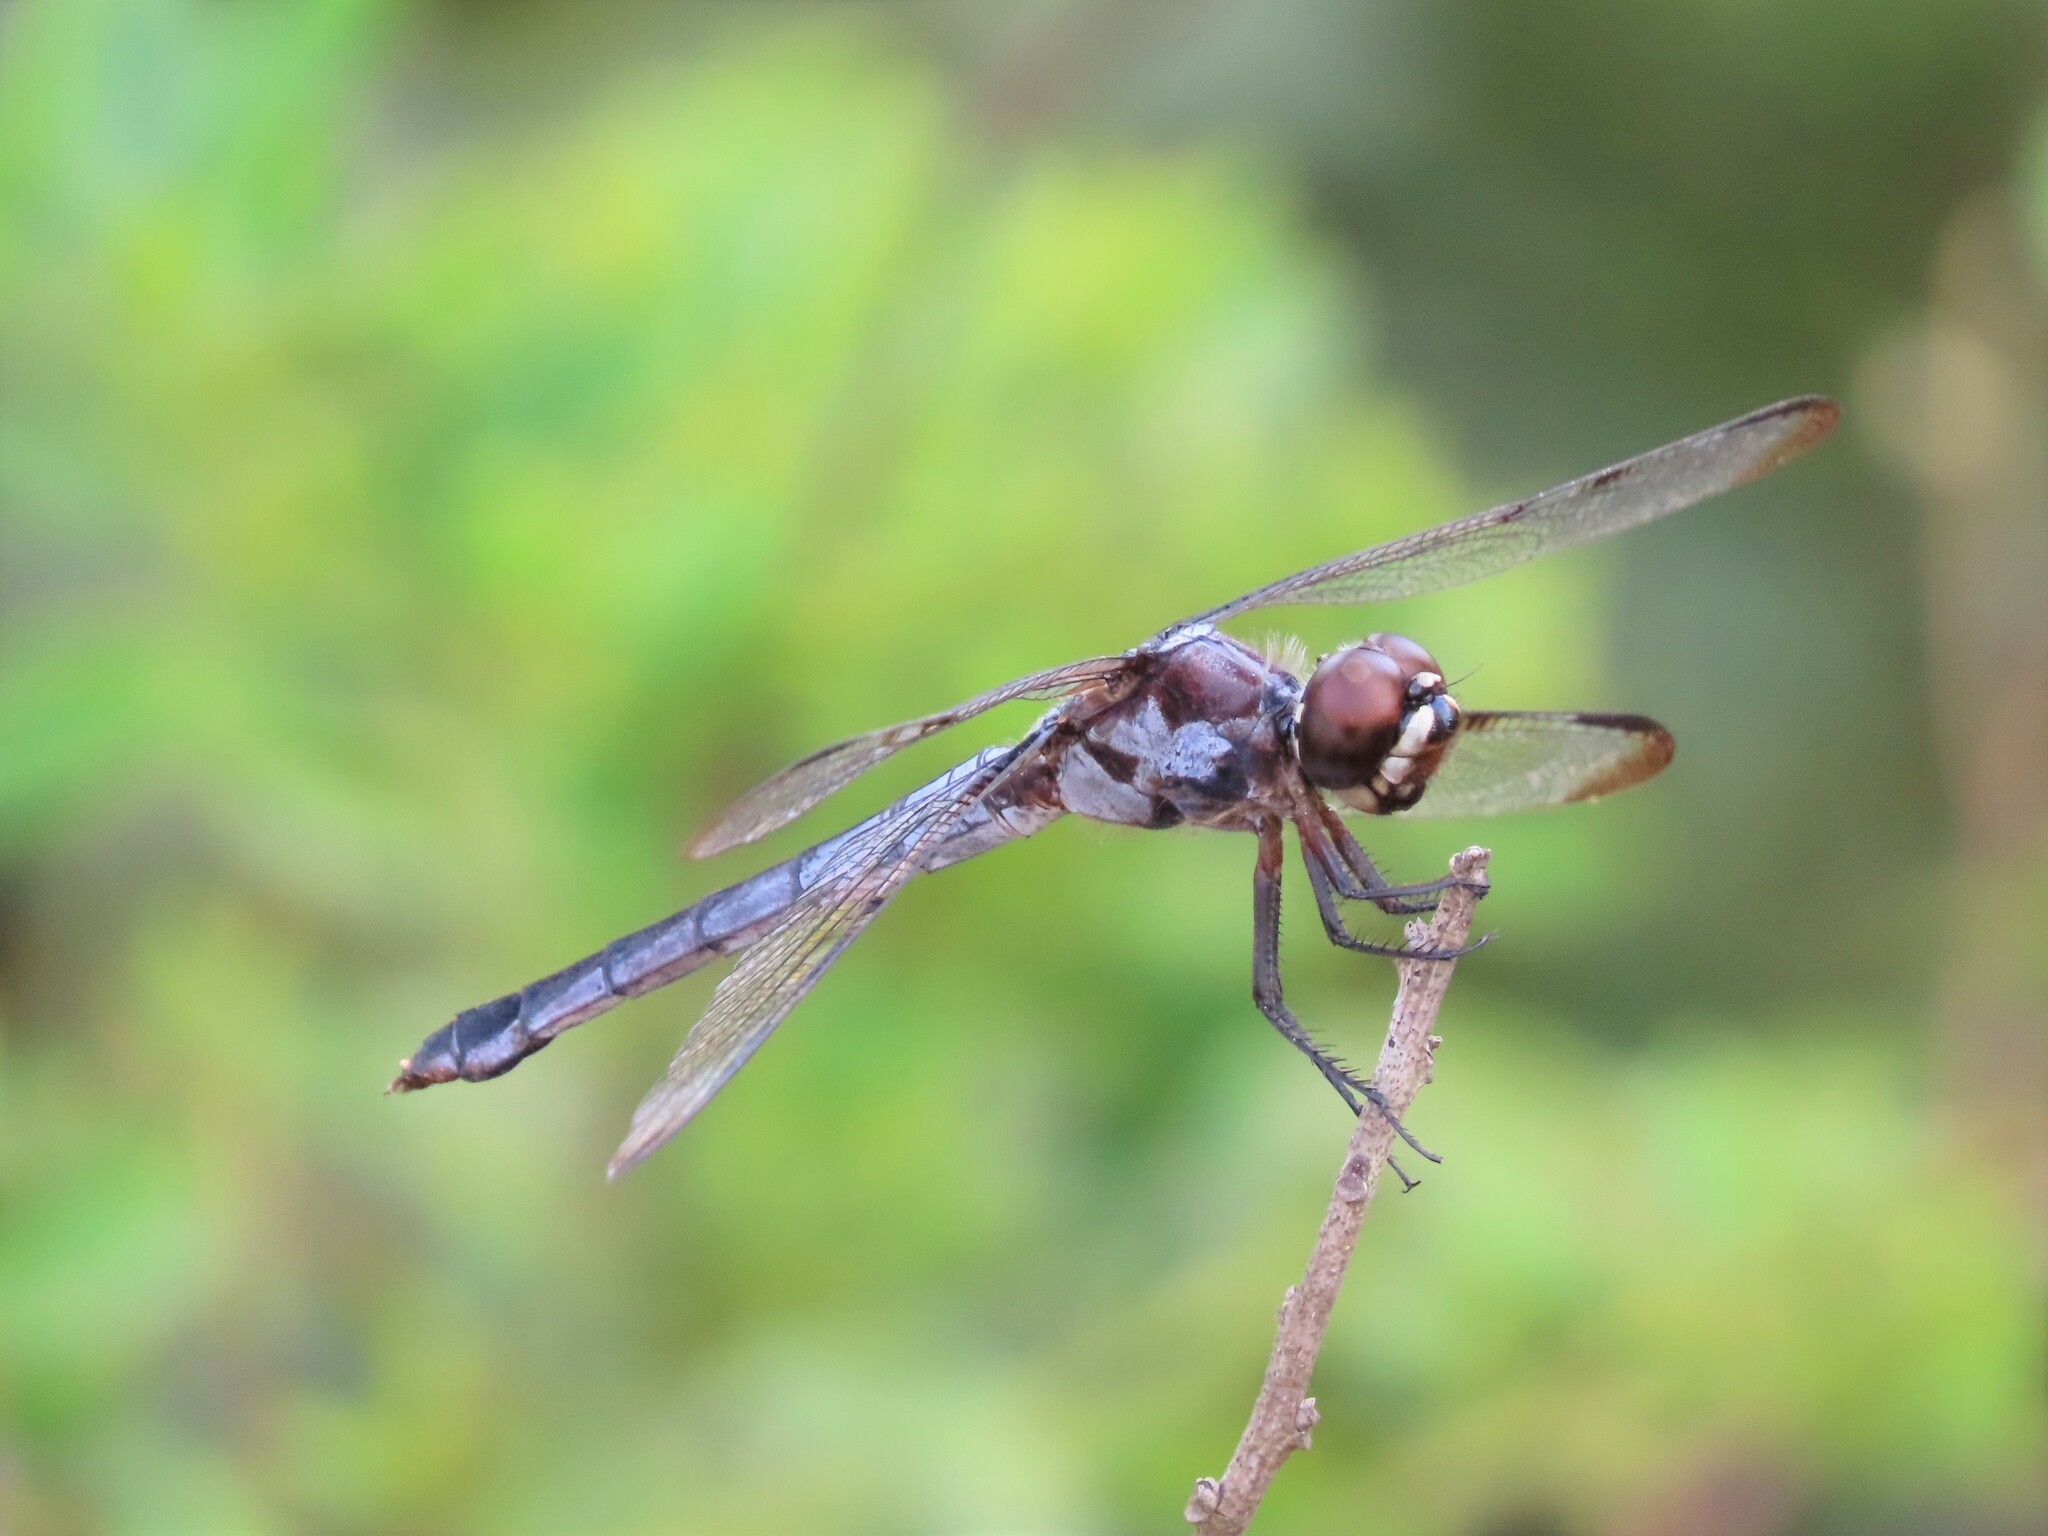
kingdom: Animalia
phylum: Arthropoda
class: Insecta
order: Odonata
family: Libellulidae
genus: Libellula
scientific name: Libellula axilena
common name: Bar-winged skimmer
